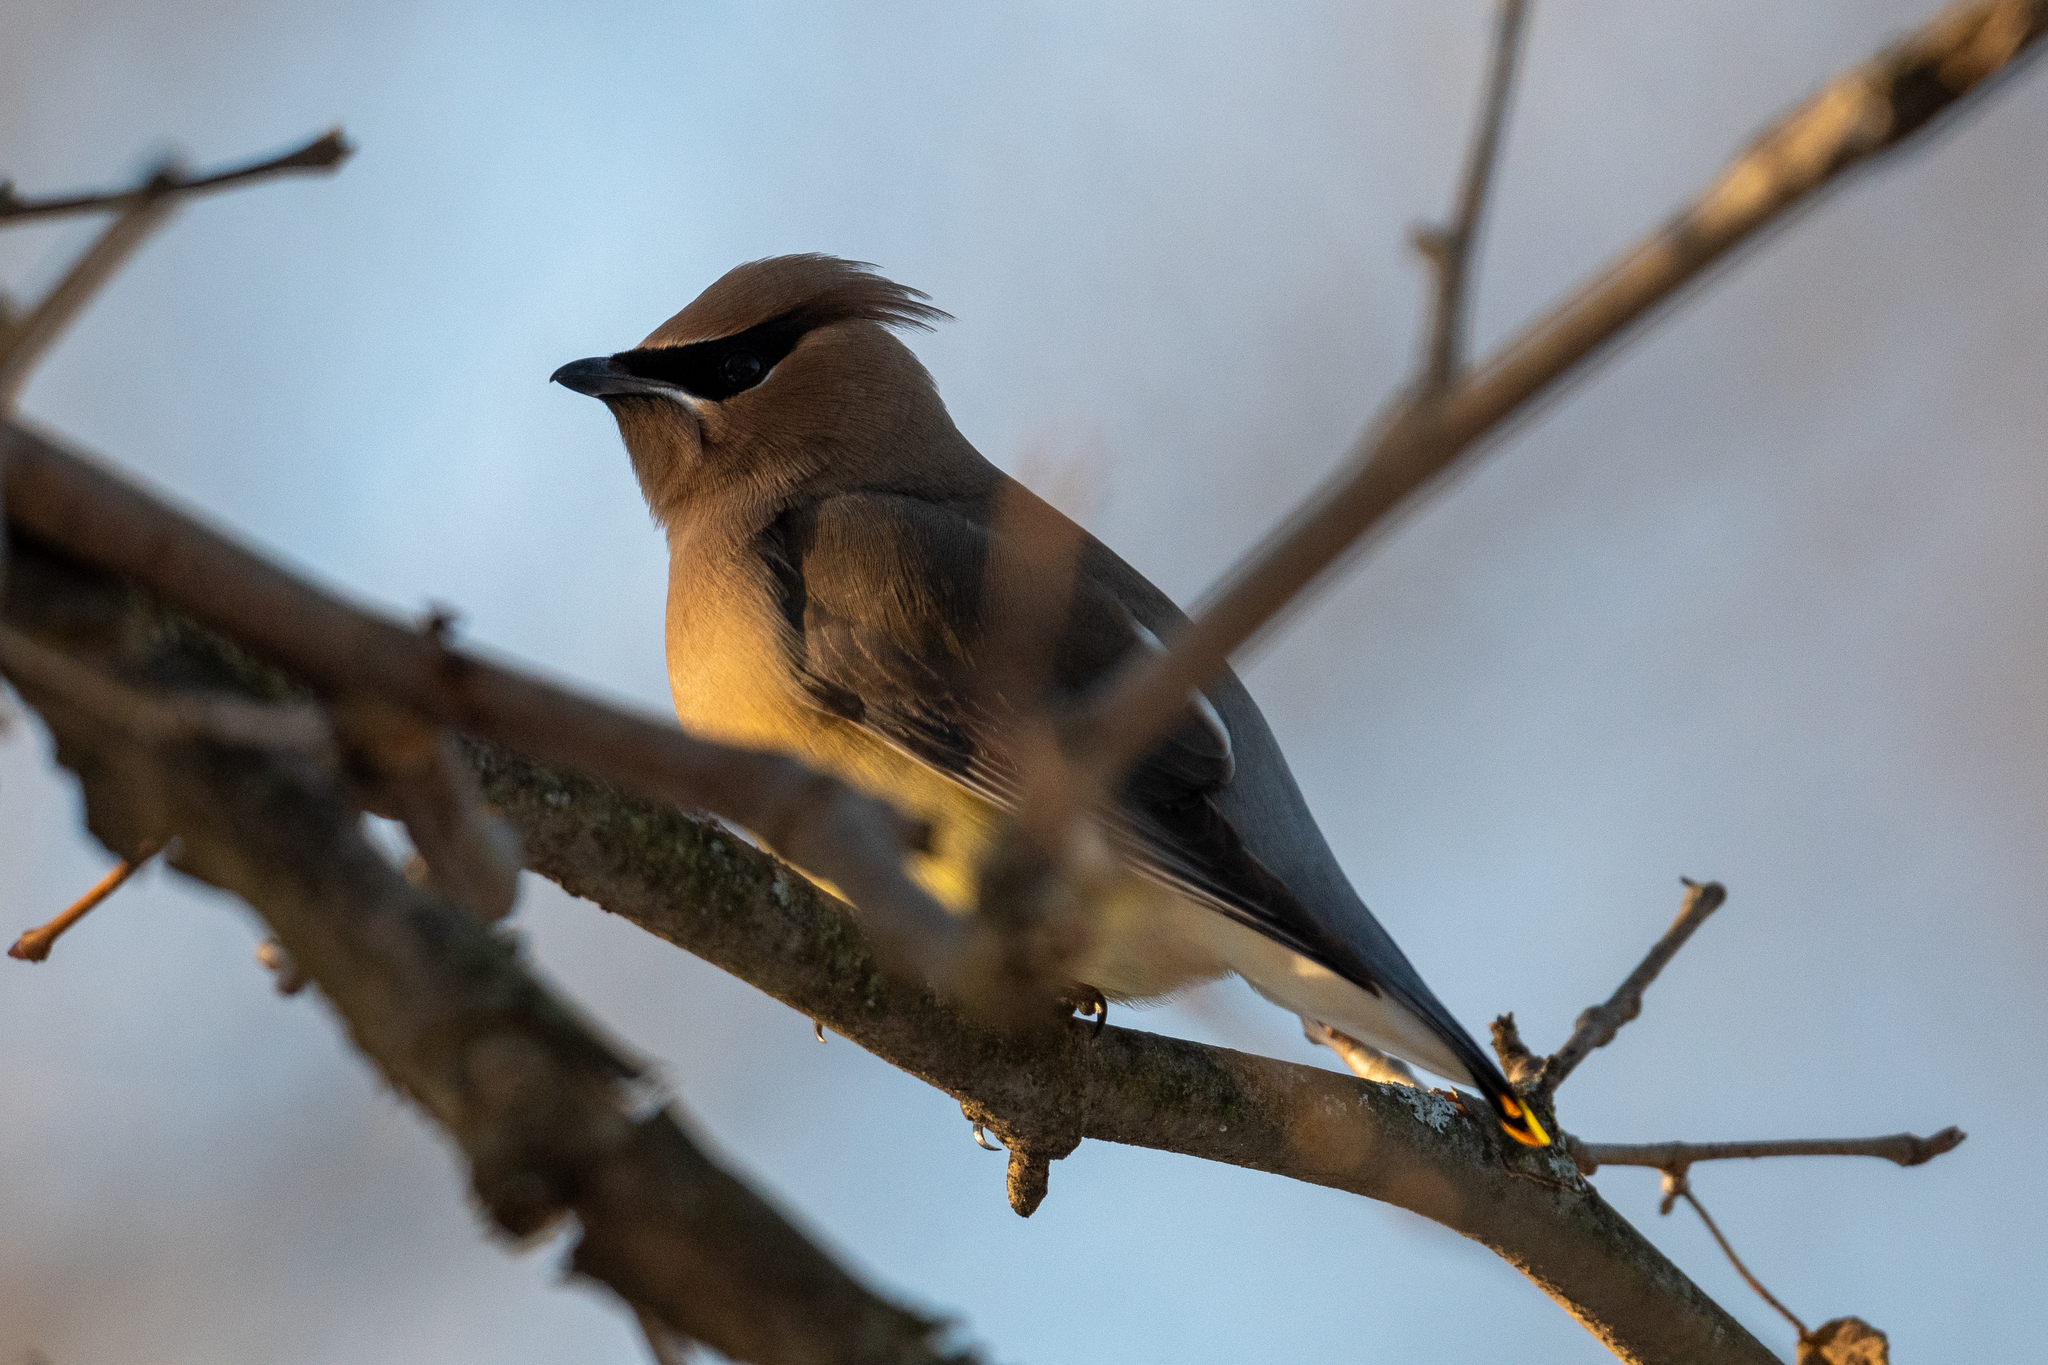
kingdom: Animalia
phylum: Chordata
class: Aves
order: Passeriformes
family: Bombycillidae
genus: Bombycilla
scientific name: Bombycilla cedrorum
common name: Cedar waxwing
